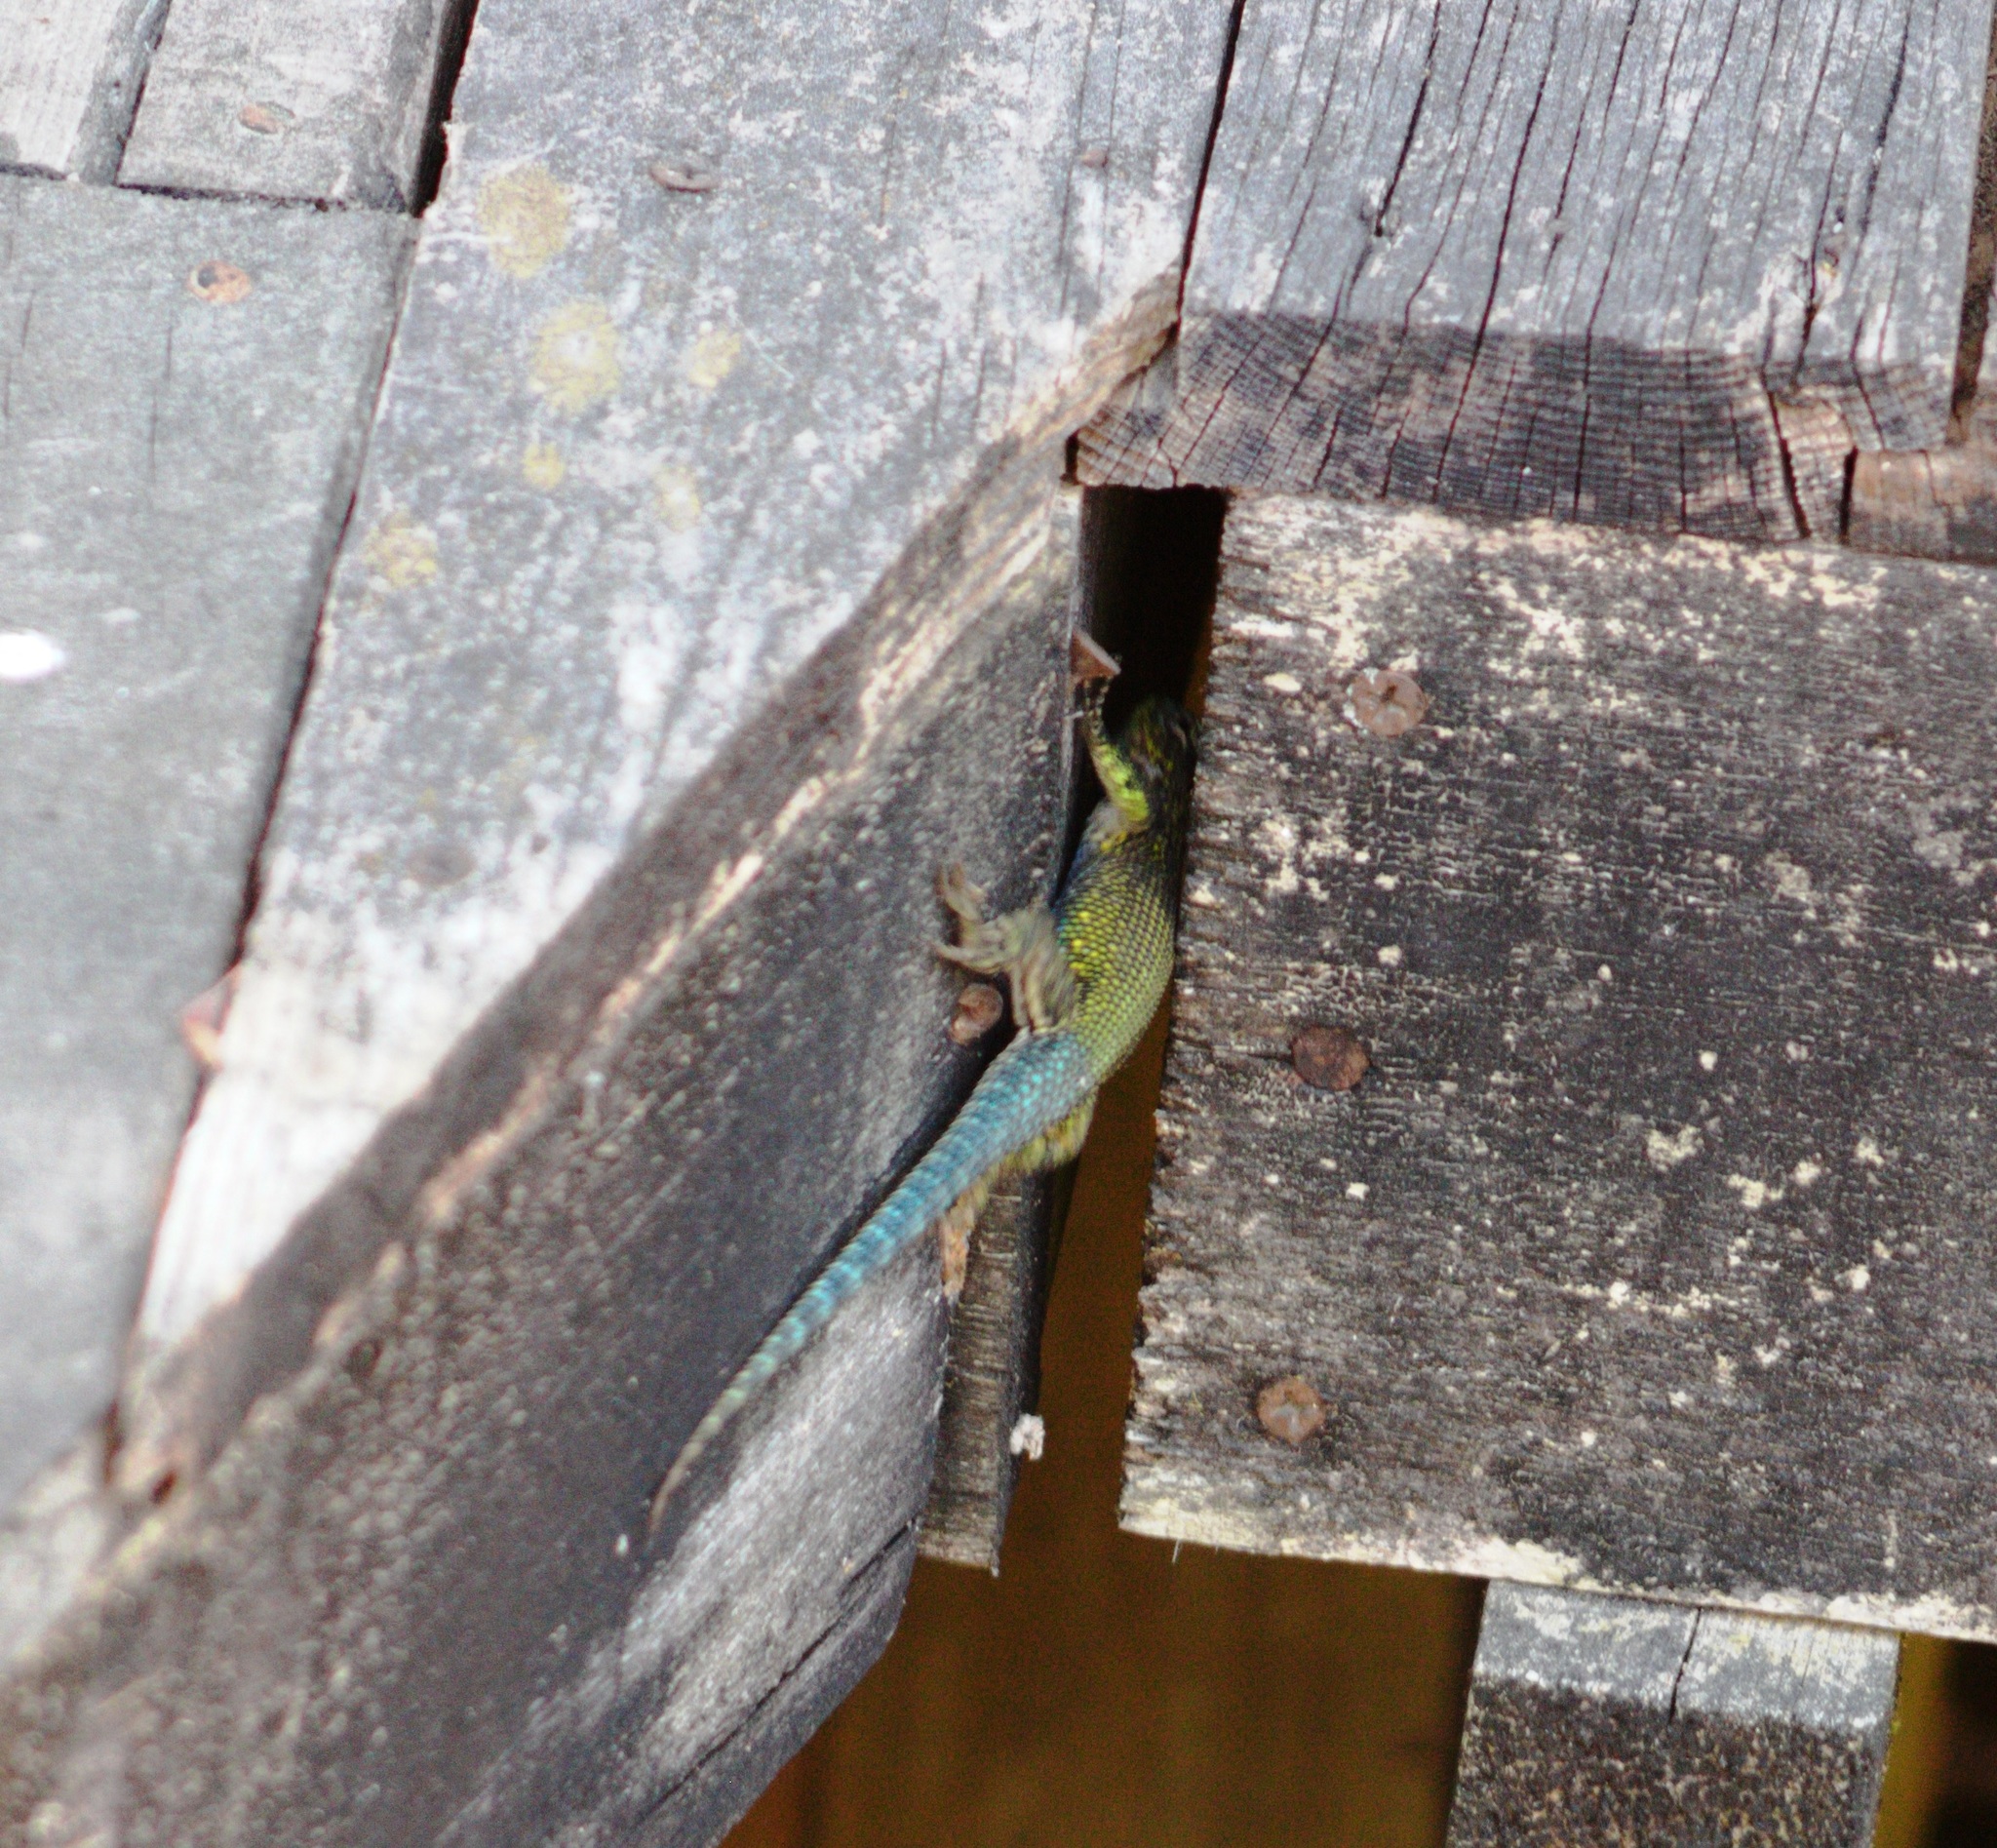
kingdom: Animalia
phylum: Chordata
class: Squamata
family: Phrynosomatidae
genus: Sceloporus
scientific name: Sceloporus taeniocnemis
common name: Guatemalan emerald spiny lizard
